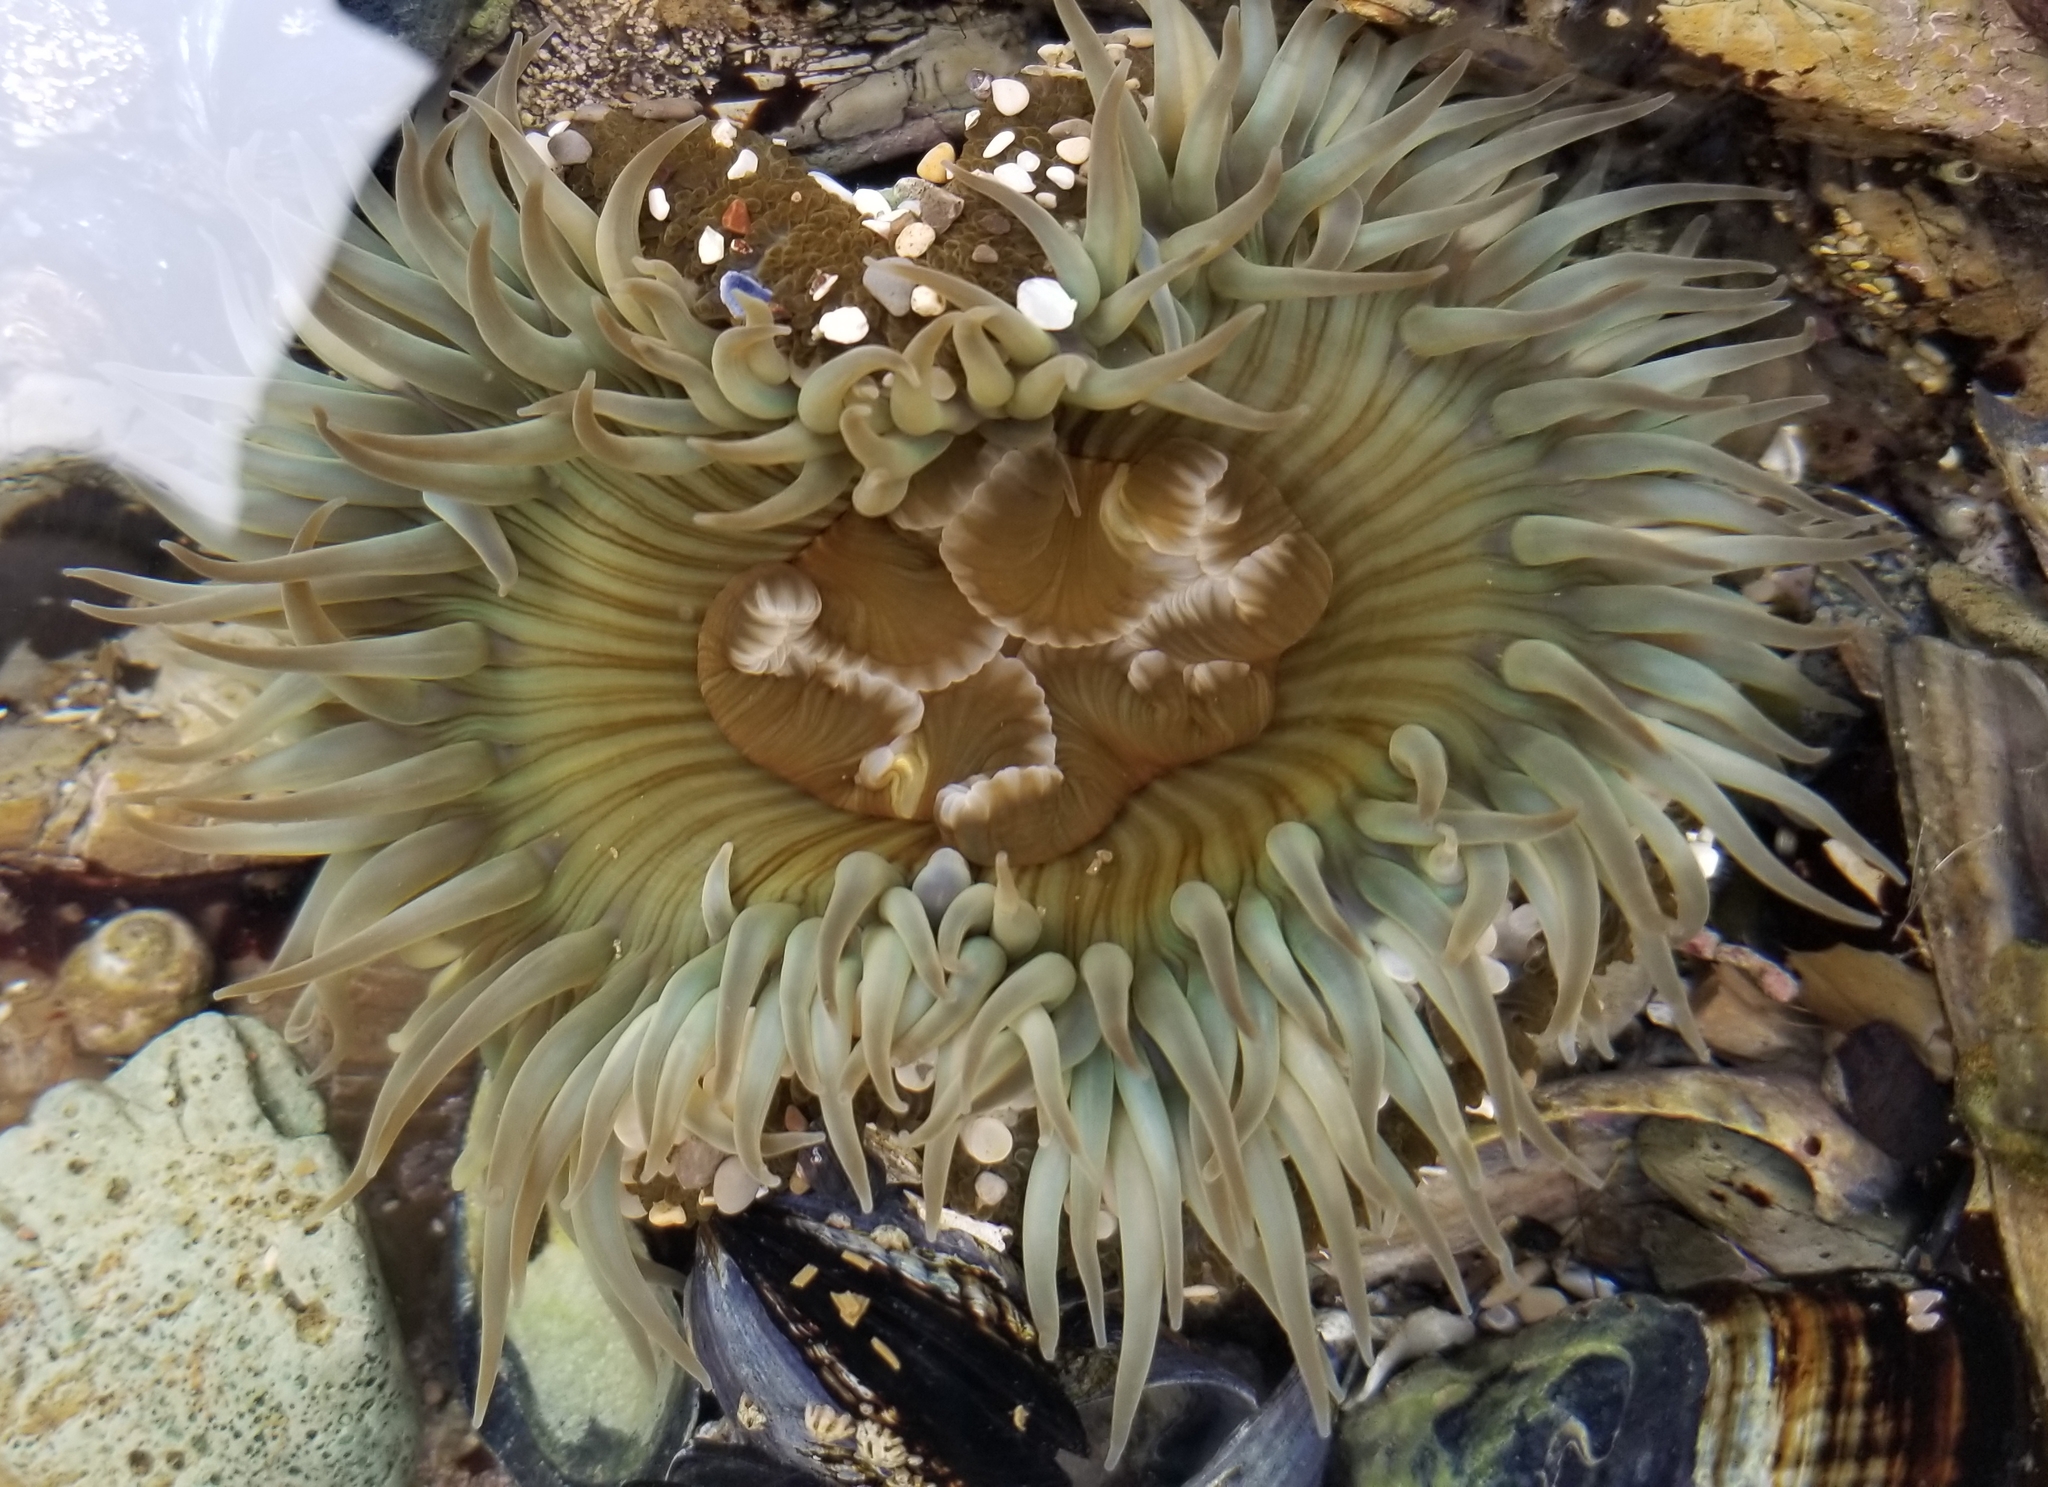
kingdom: Animalia
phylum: Cnidaria
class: Anthozoa
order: Actiniaria
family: Actiniidae
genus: Anthopleura
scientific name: Anthopleura sola
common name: Sun anemone
